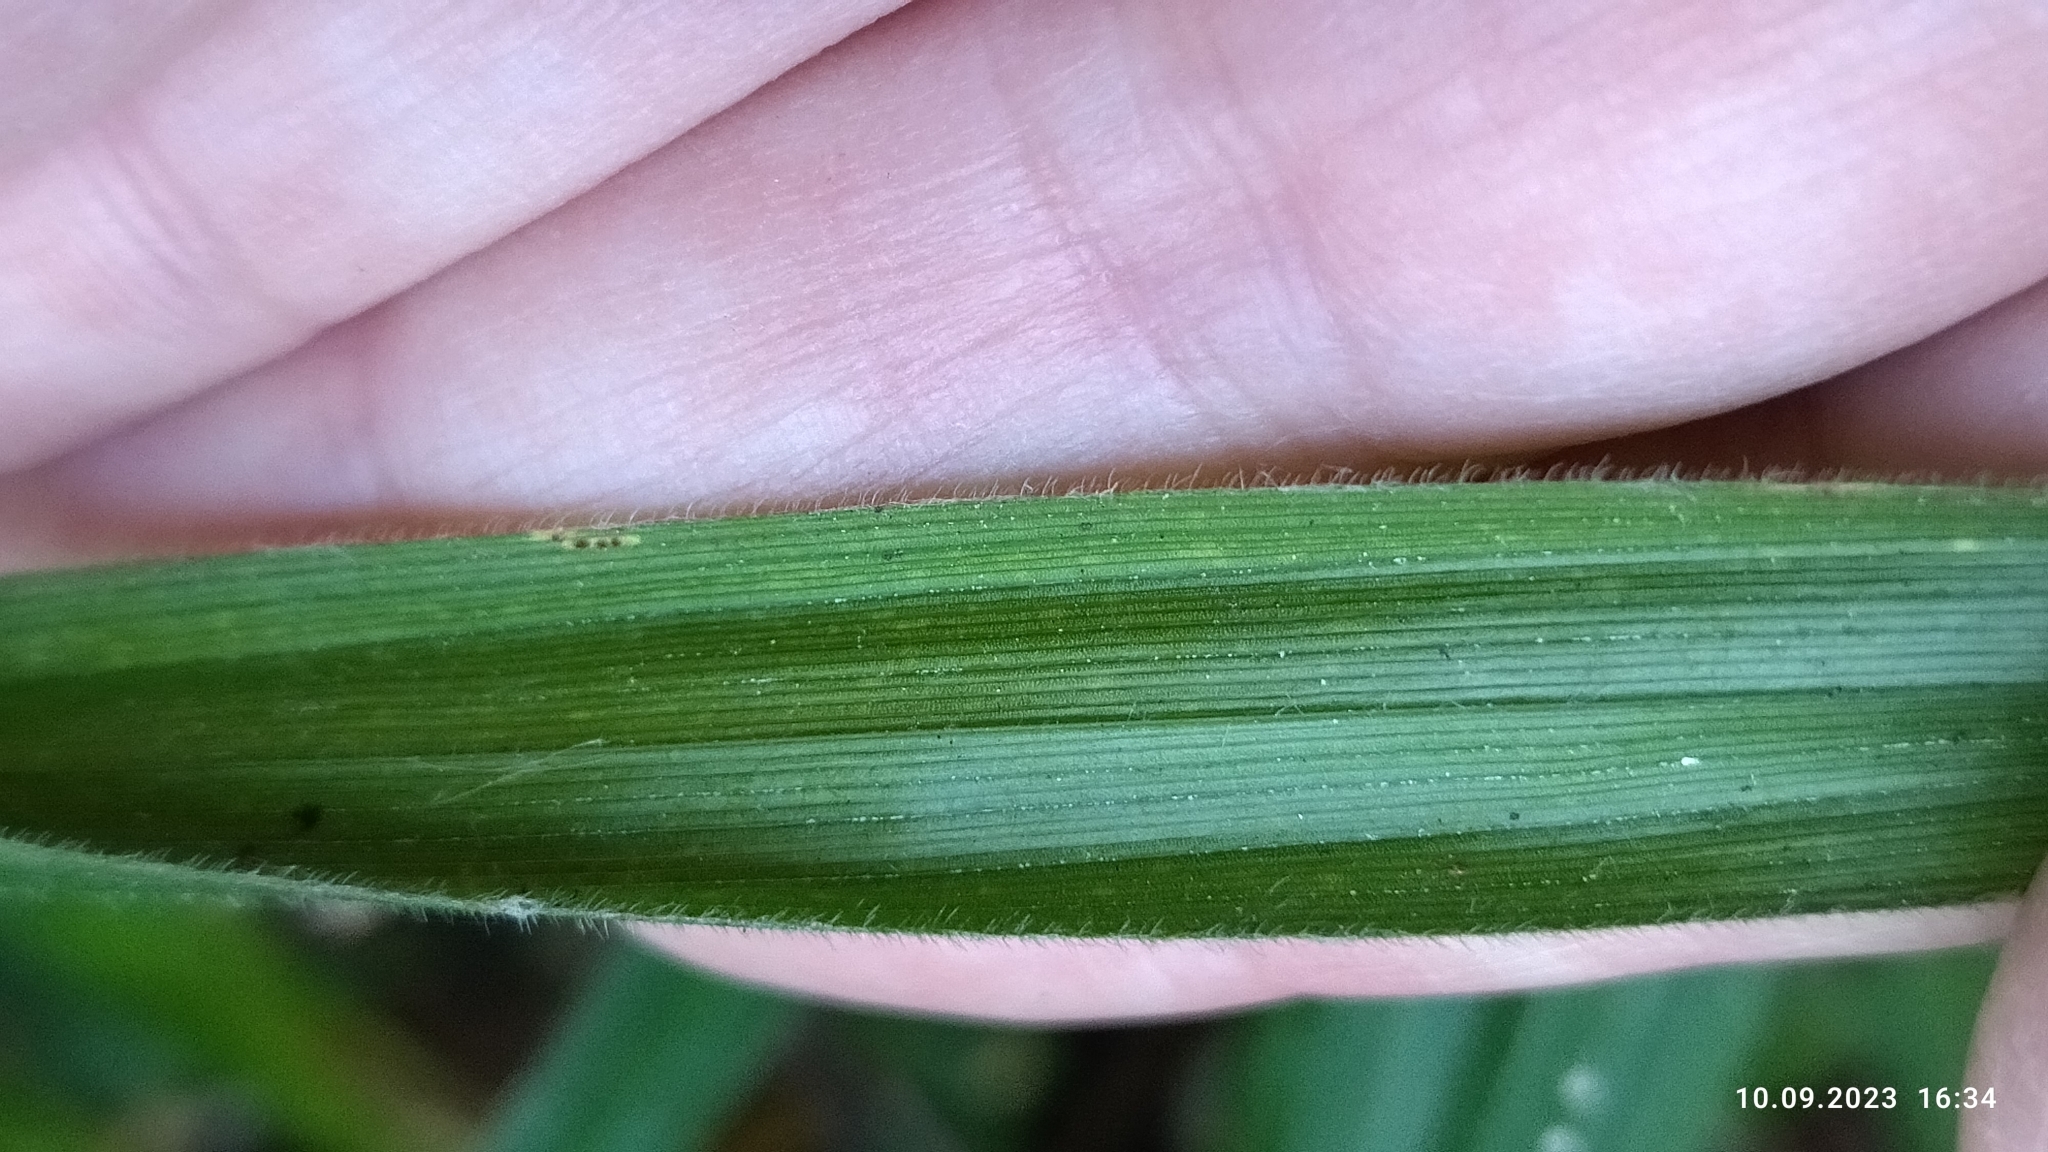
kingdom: Plantae
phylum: Tracheophyta
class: Liliopsida
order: Poales
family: Cyperaceae
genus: Carex
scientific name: Carex pilosa
